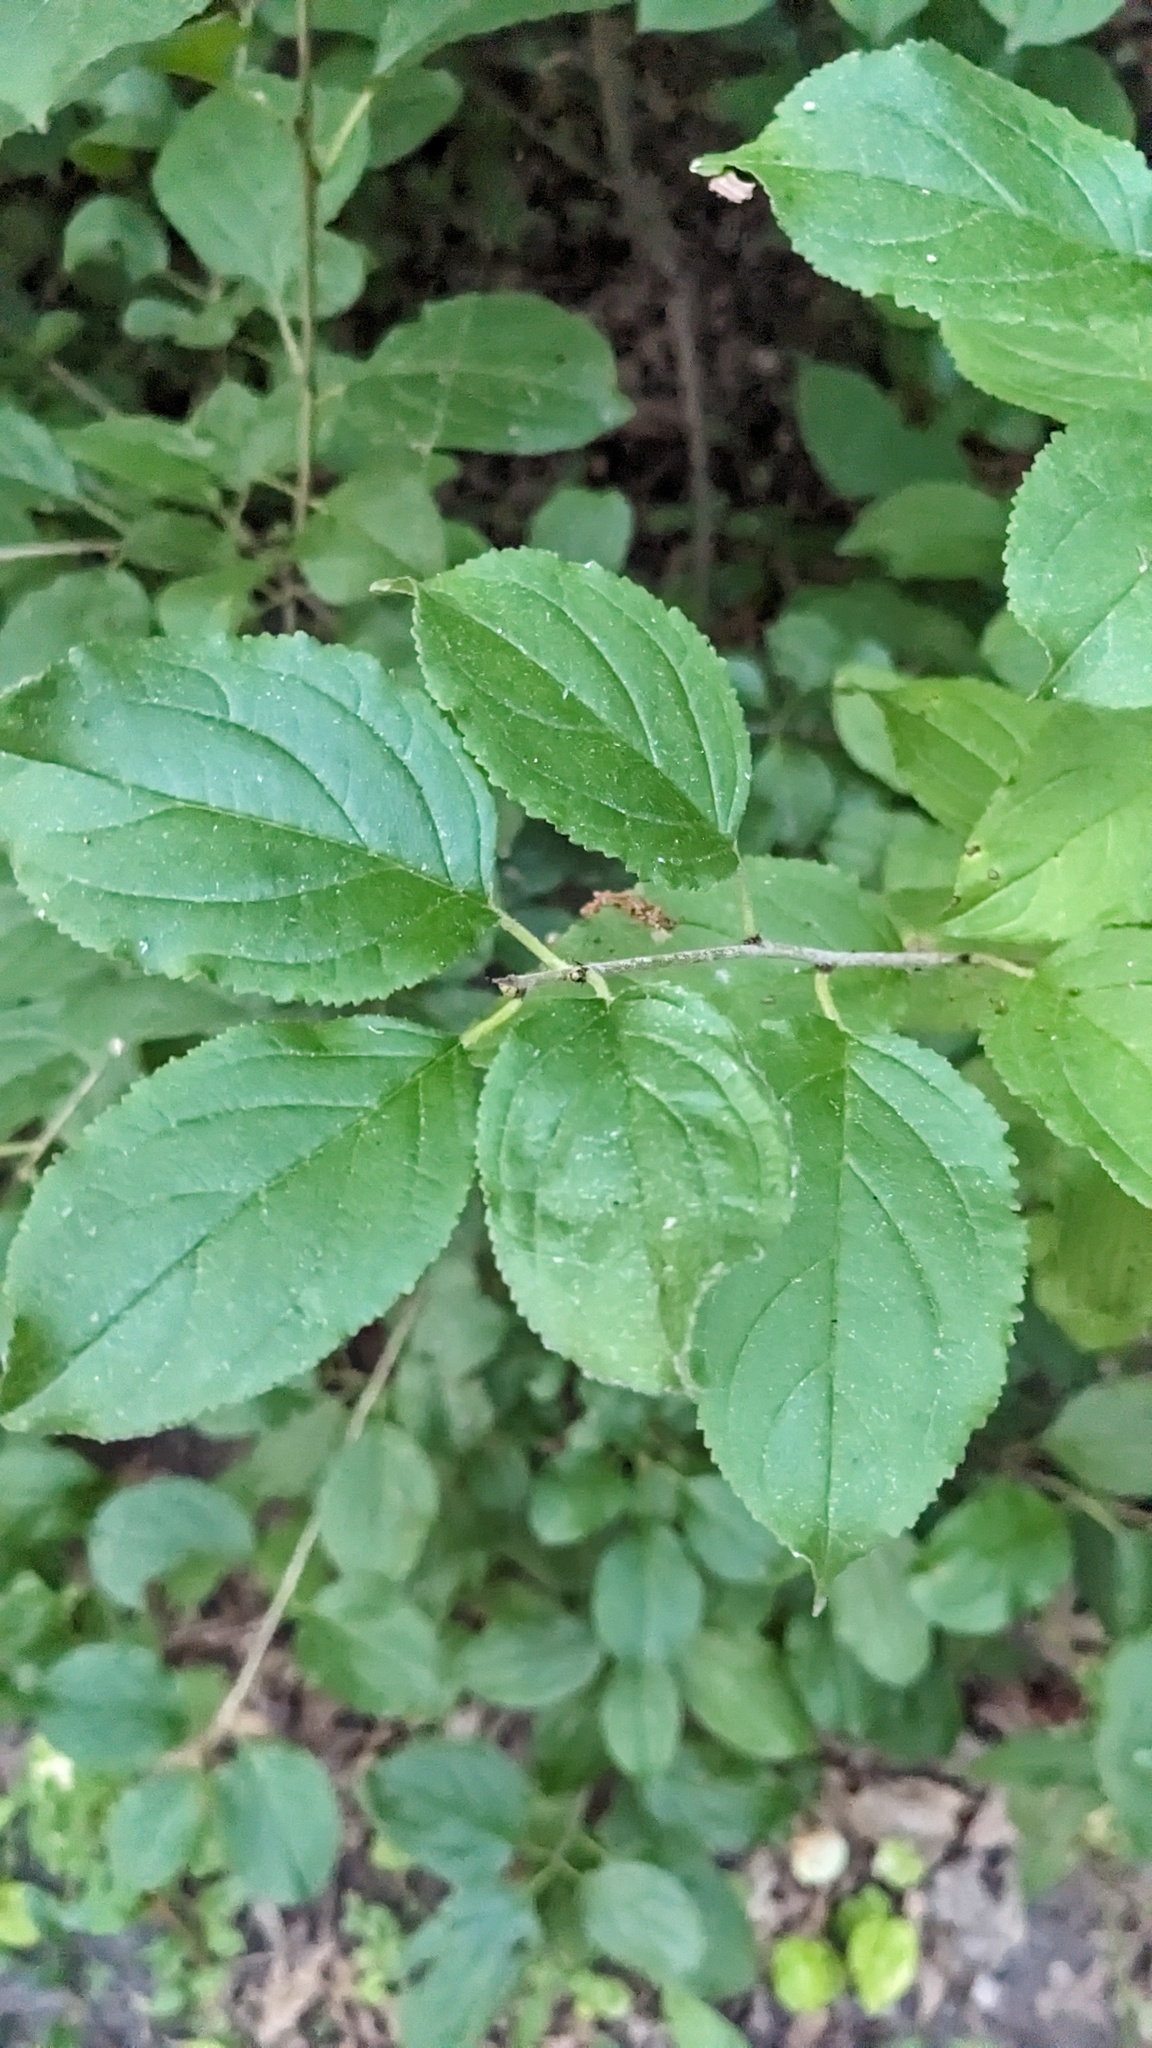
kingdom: Plantae
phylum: Tracheophyta
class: Magnoliopsida
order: Rosales
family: Rhamnaceae
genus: Rhamnus
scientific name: Rhamnus cathartica
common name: Common buckthorn
